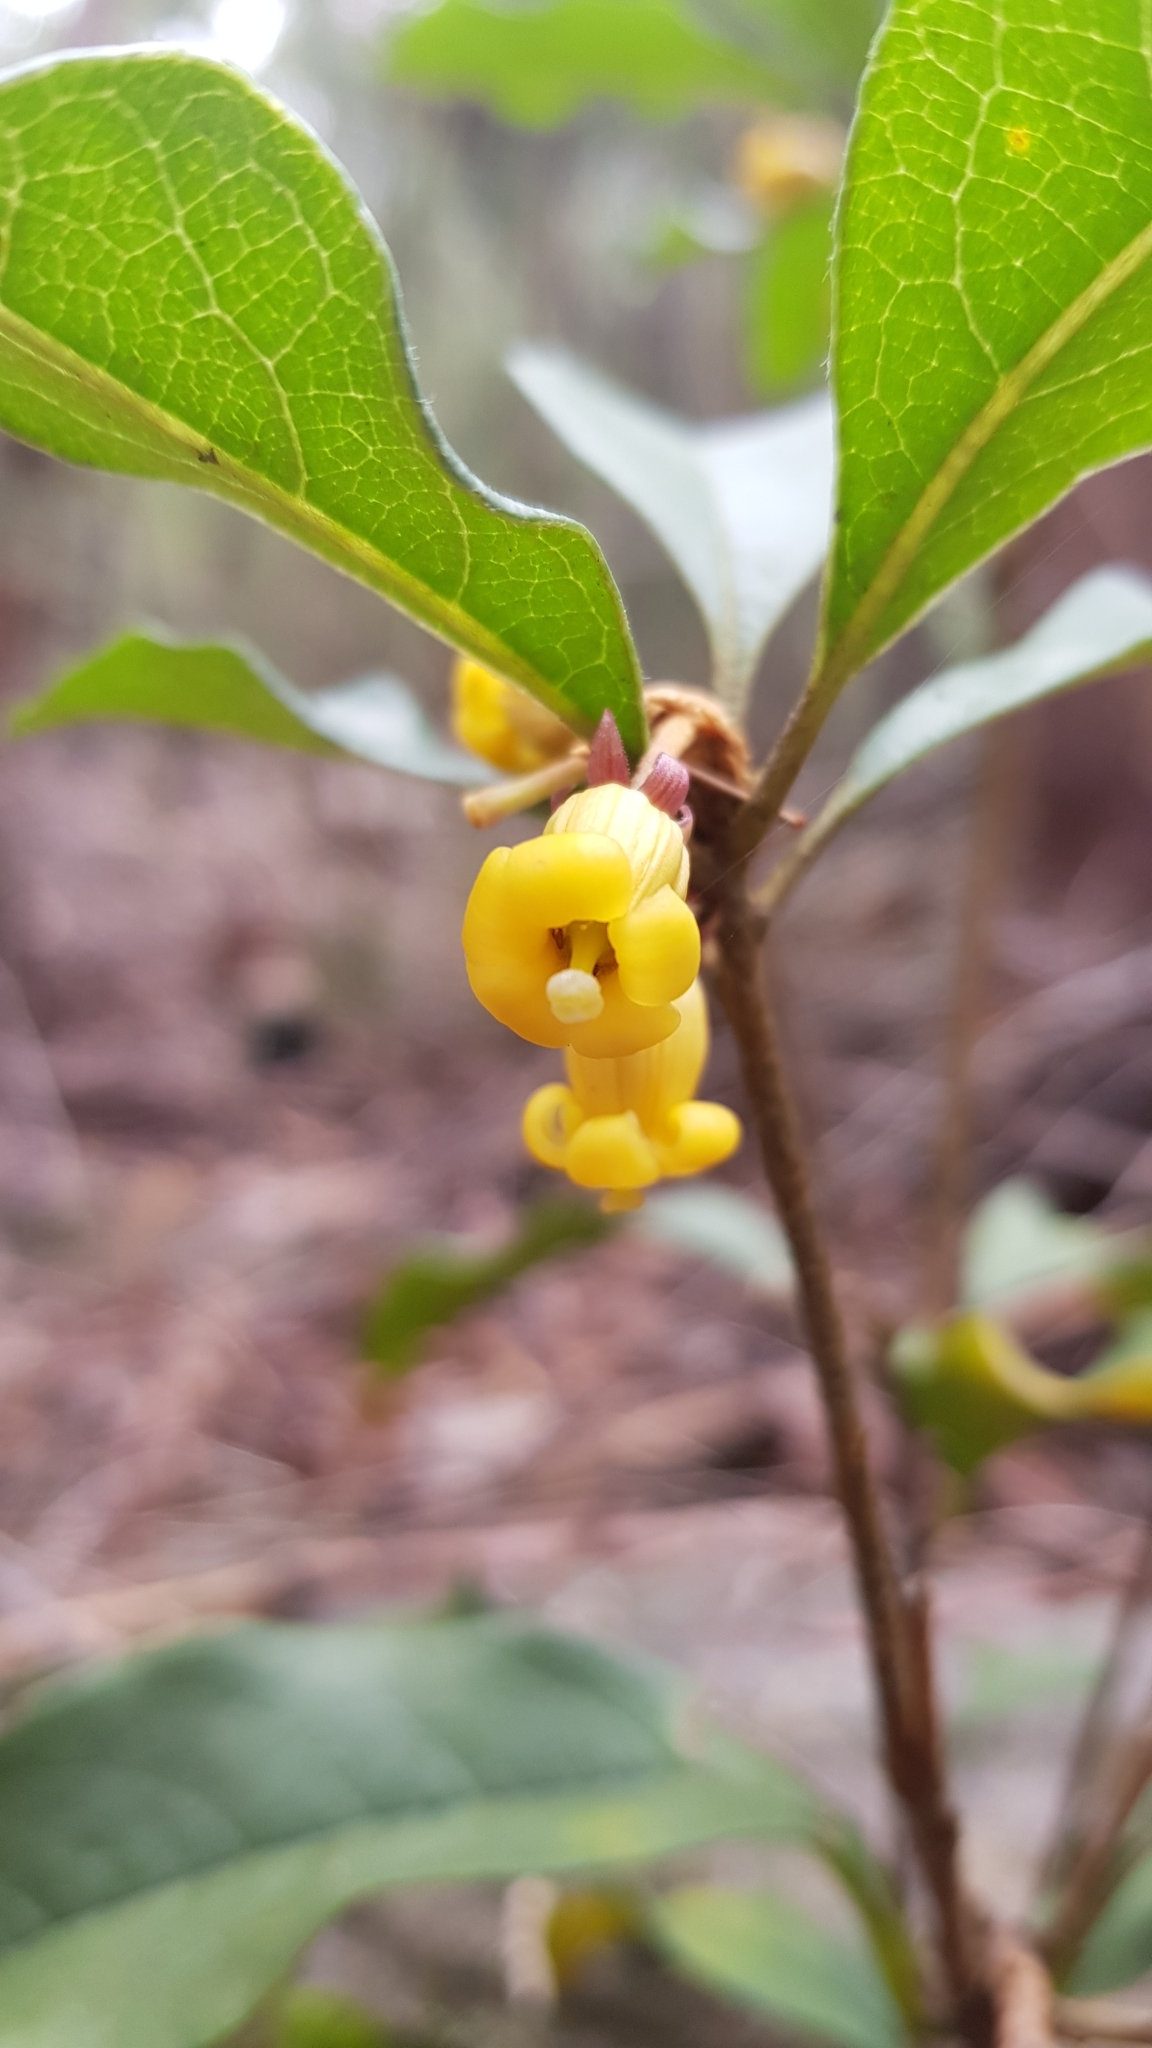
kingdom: Plantae
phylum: Tracheophyta
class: Magnoliopsida
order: Apiales
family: Pittosporaceae
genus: Pittosporum
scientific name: Pittosporum revolutum
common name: Brisbane-laurel
